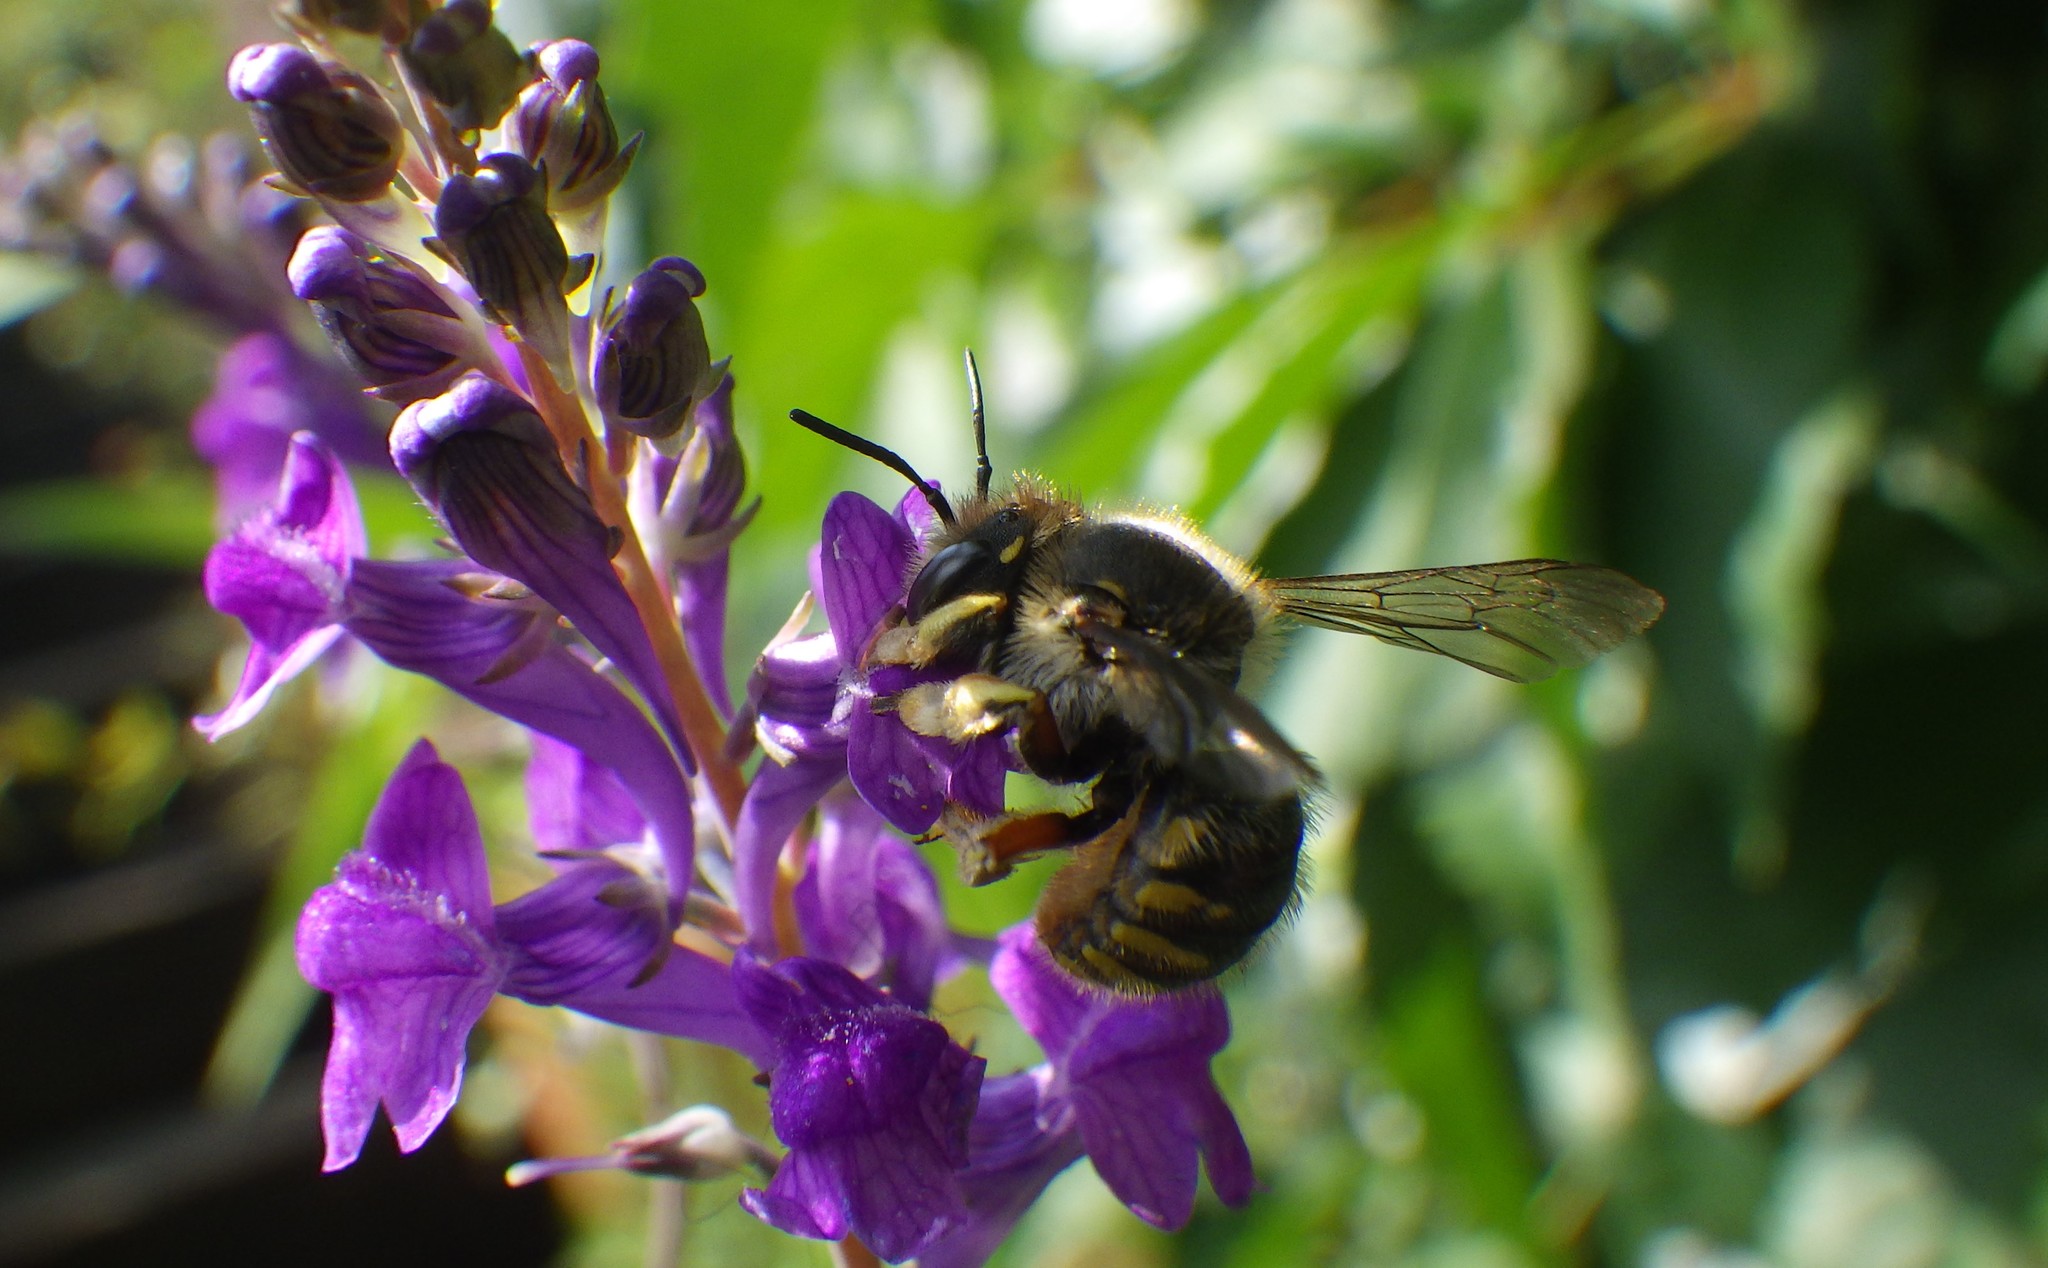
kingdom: Animalia
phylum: Arthropoda
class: Insecta
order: Hymenoptera
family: Megachilidae
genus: Anthidium
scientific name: Anthidium manicatum
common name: Wool carder bee
